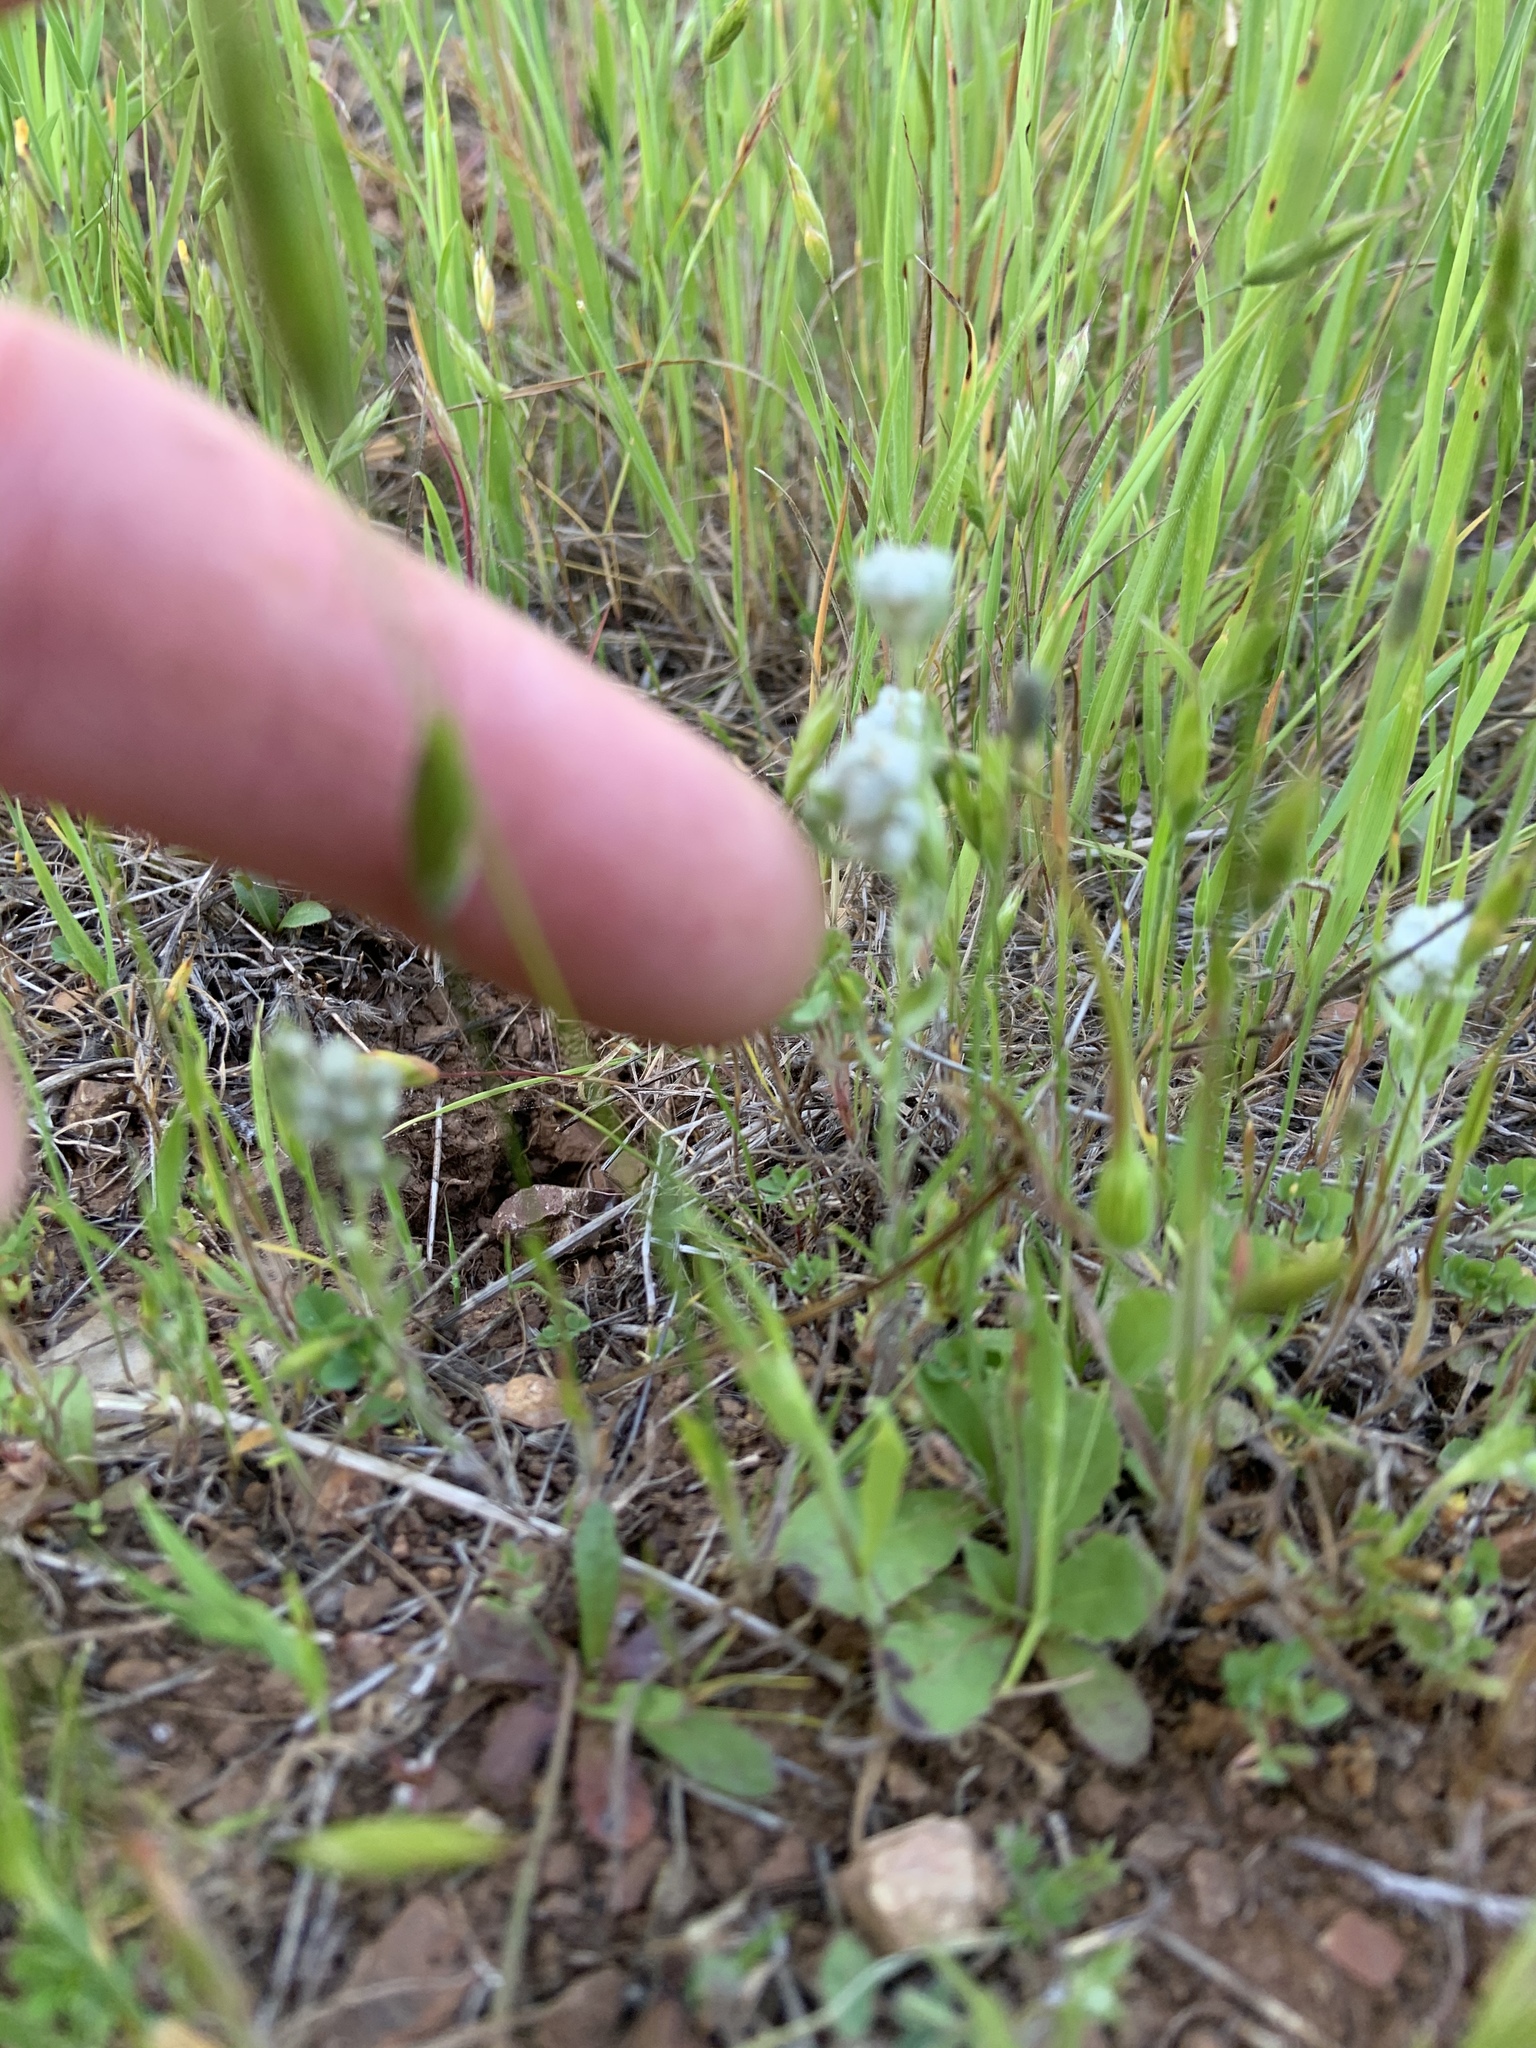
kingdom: Plantae
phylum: Tracheophyta
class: Magnoliopsida
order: Asterales
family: Asteraceae
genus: Bombycilaena
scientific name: Bombycilaena californica
